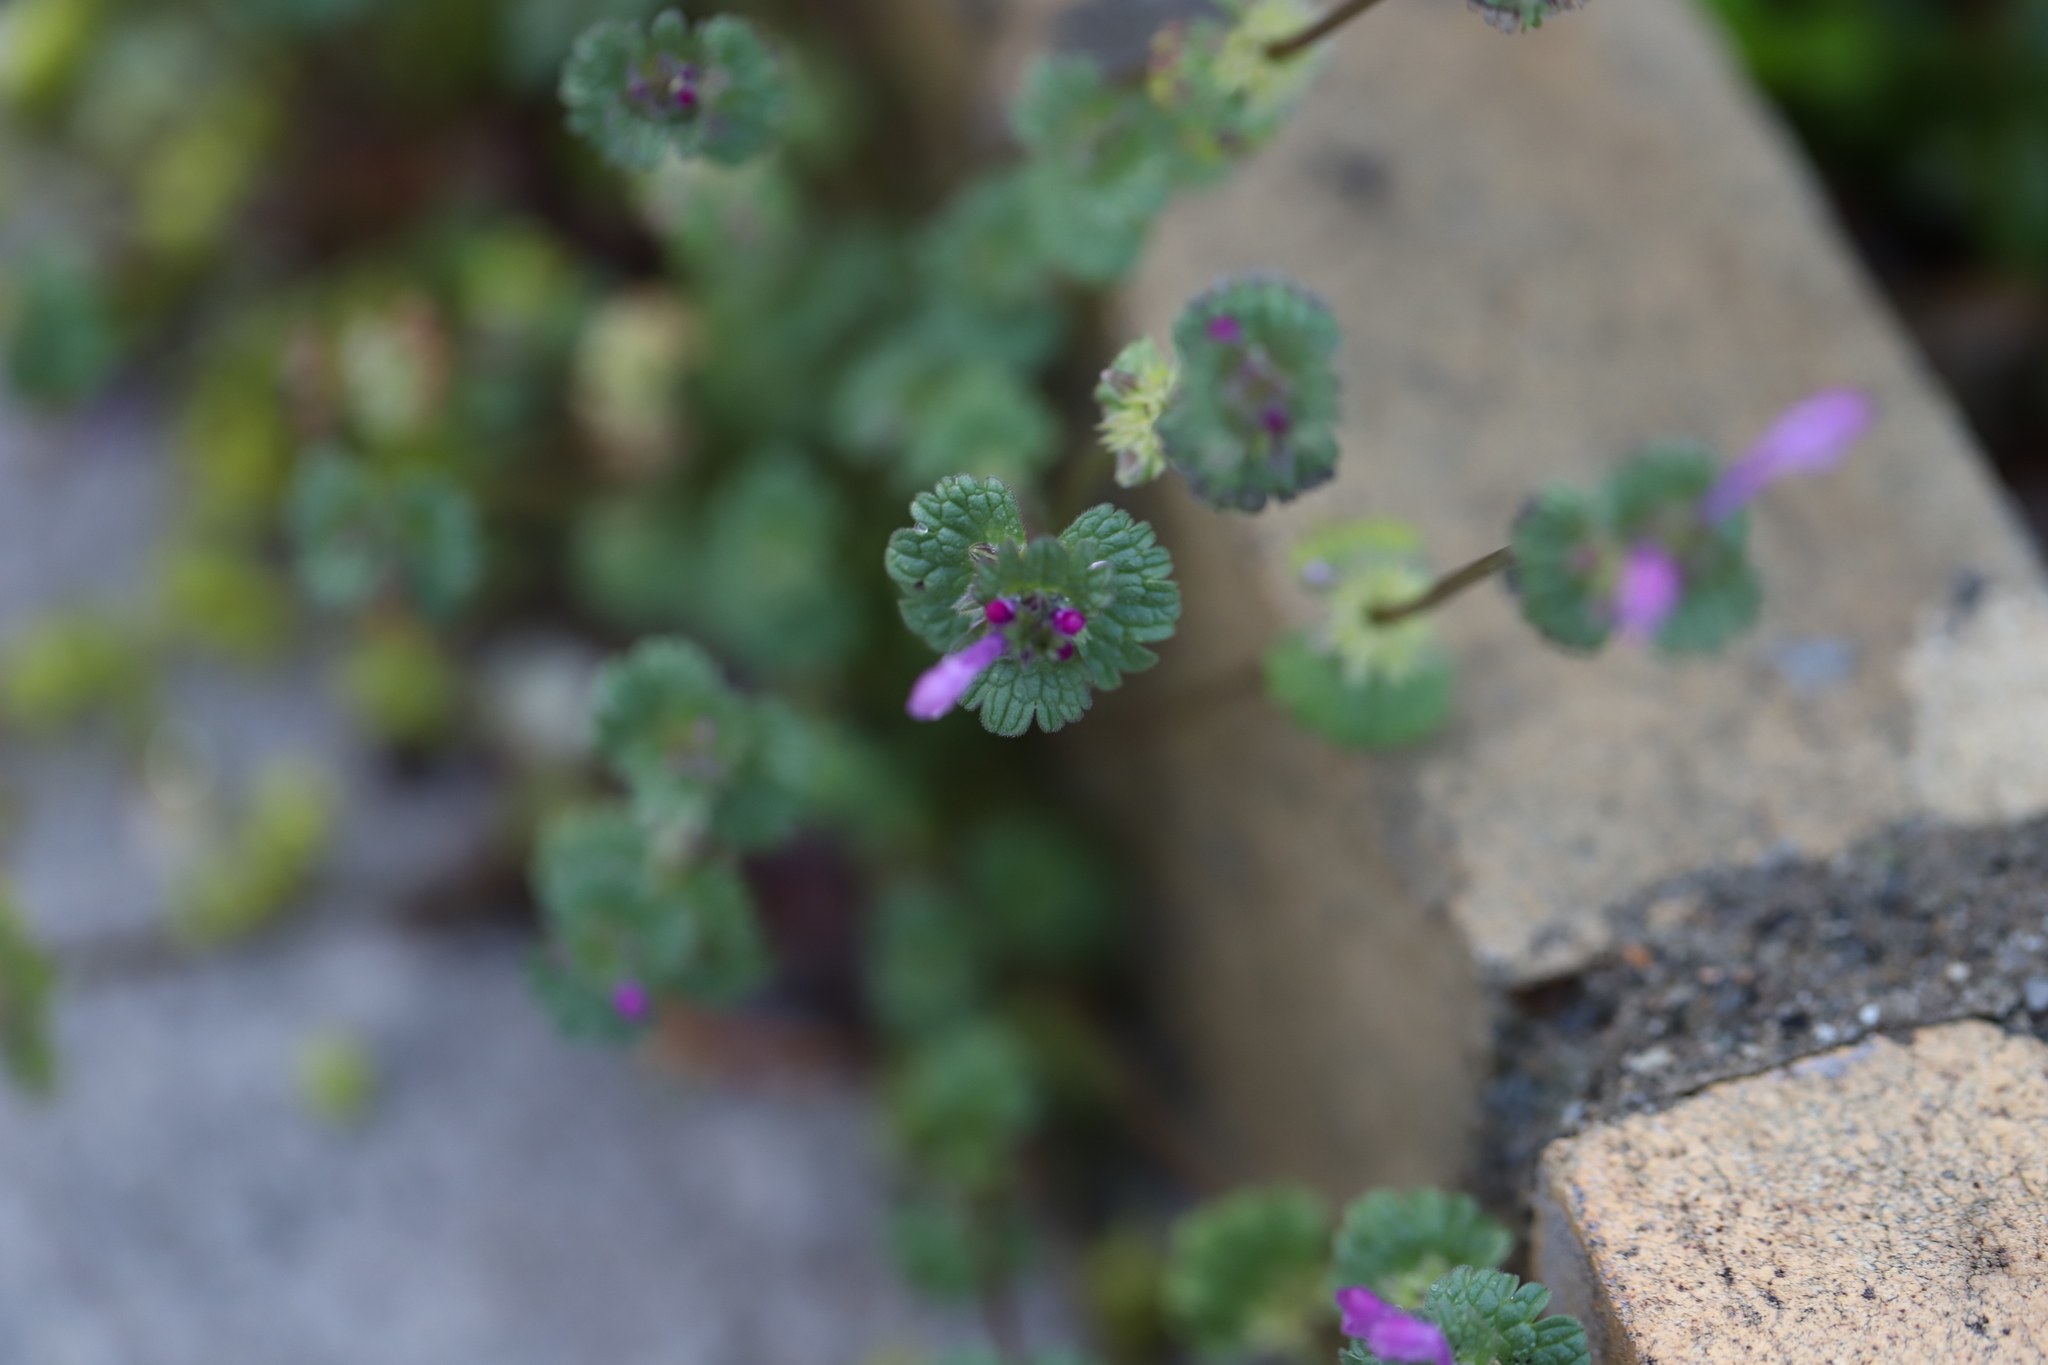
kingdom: Plantae
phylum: Tracheophyta
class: Magnoliopsida
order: Lamiales
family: Lamiaceae
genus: Lamium
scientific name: Lamium amplexicaule
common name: Henbit dead-nettle
